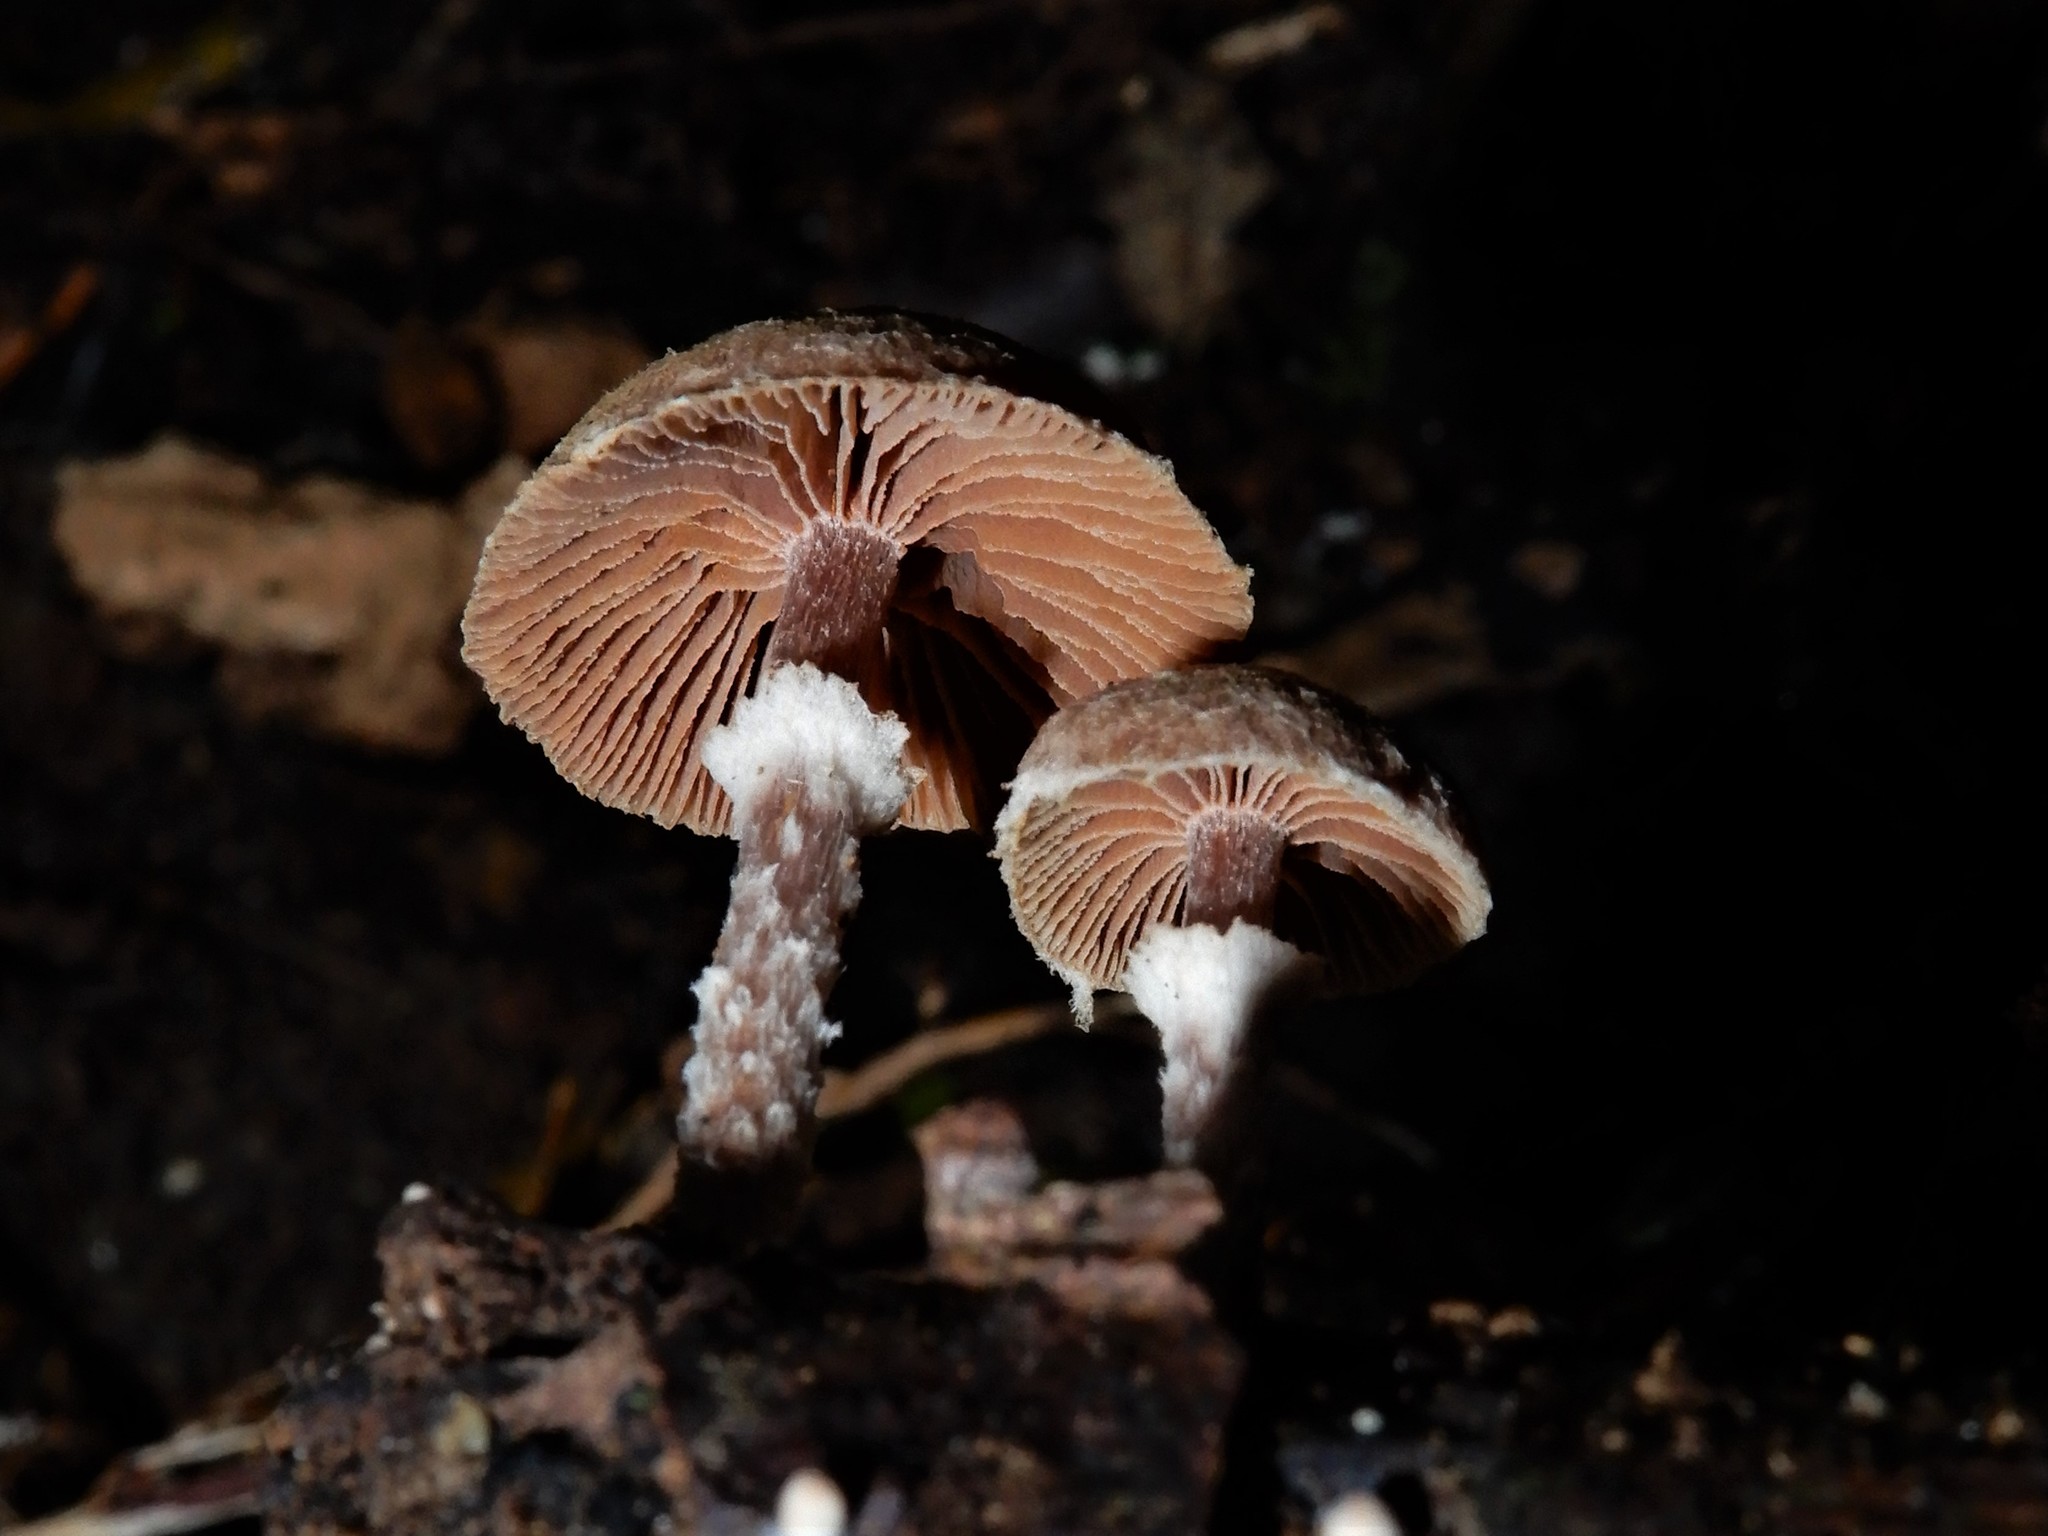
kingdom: Fungi
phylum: Basidiomycota
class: Agaricomycetes
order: Agaricales
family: Tubariaceae
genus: Tubaria
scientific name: Tubaria similis
